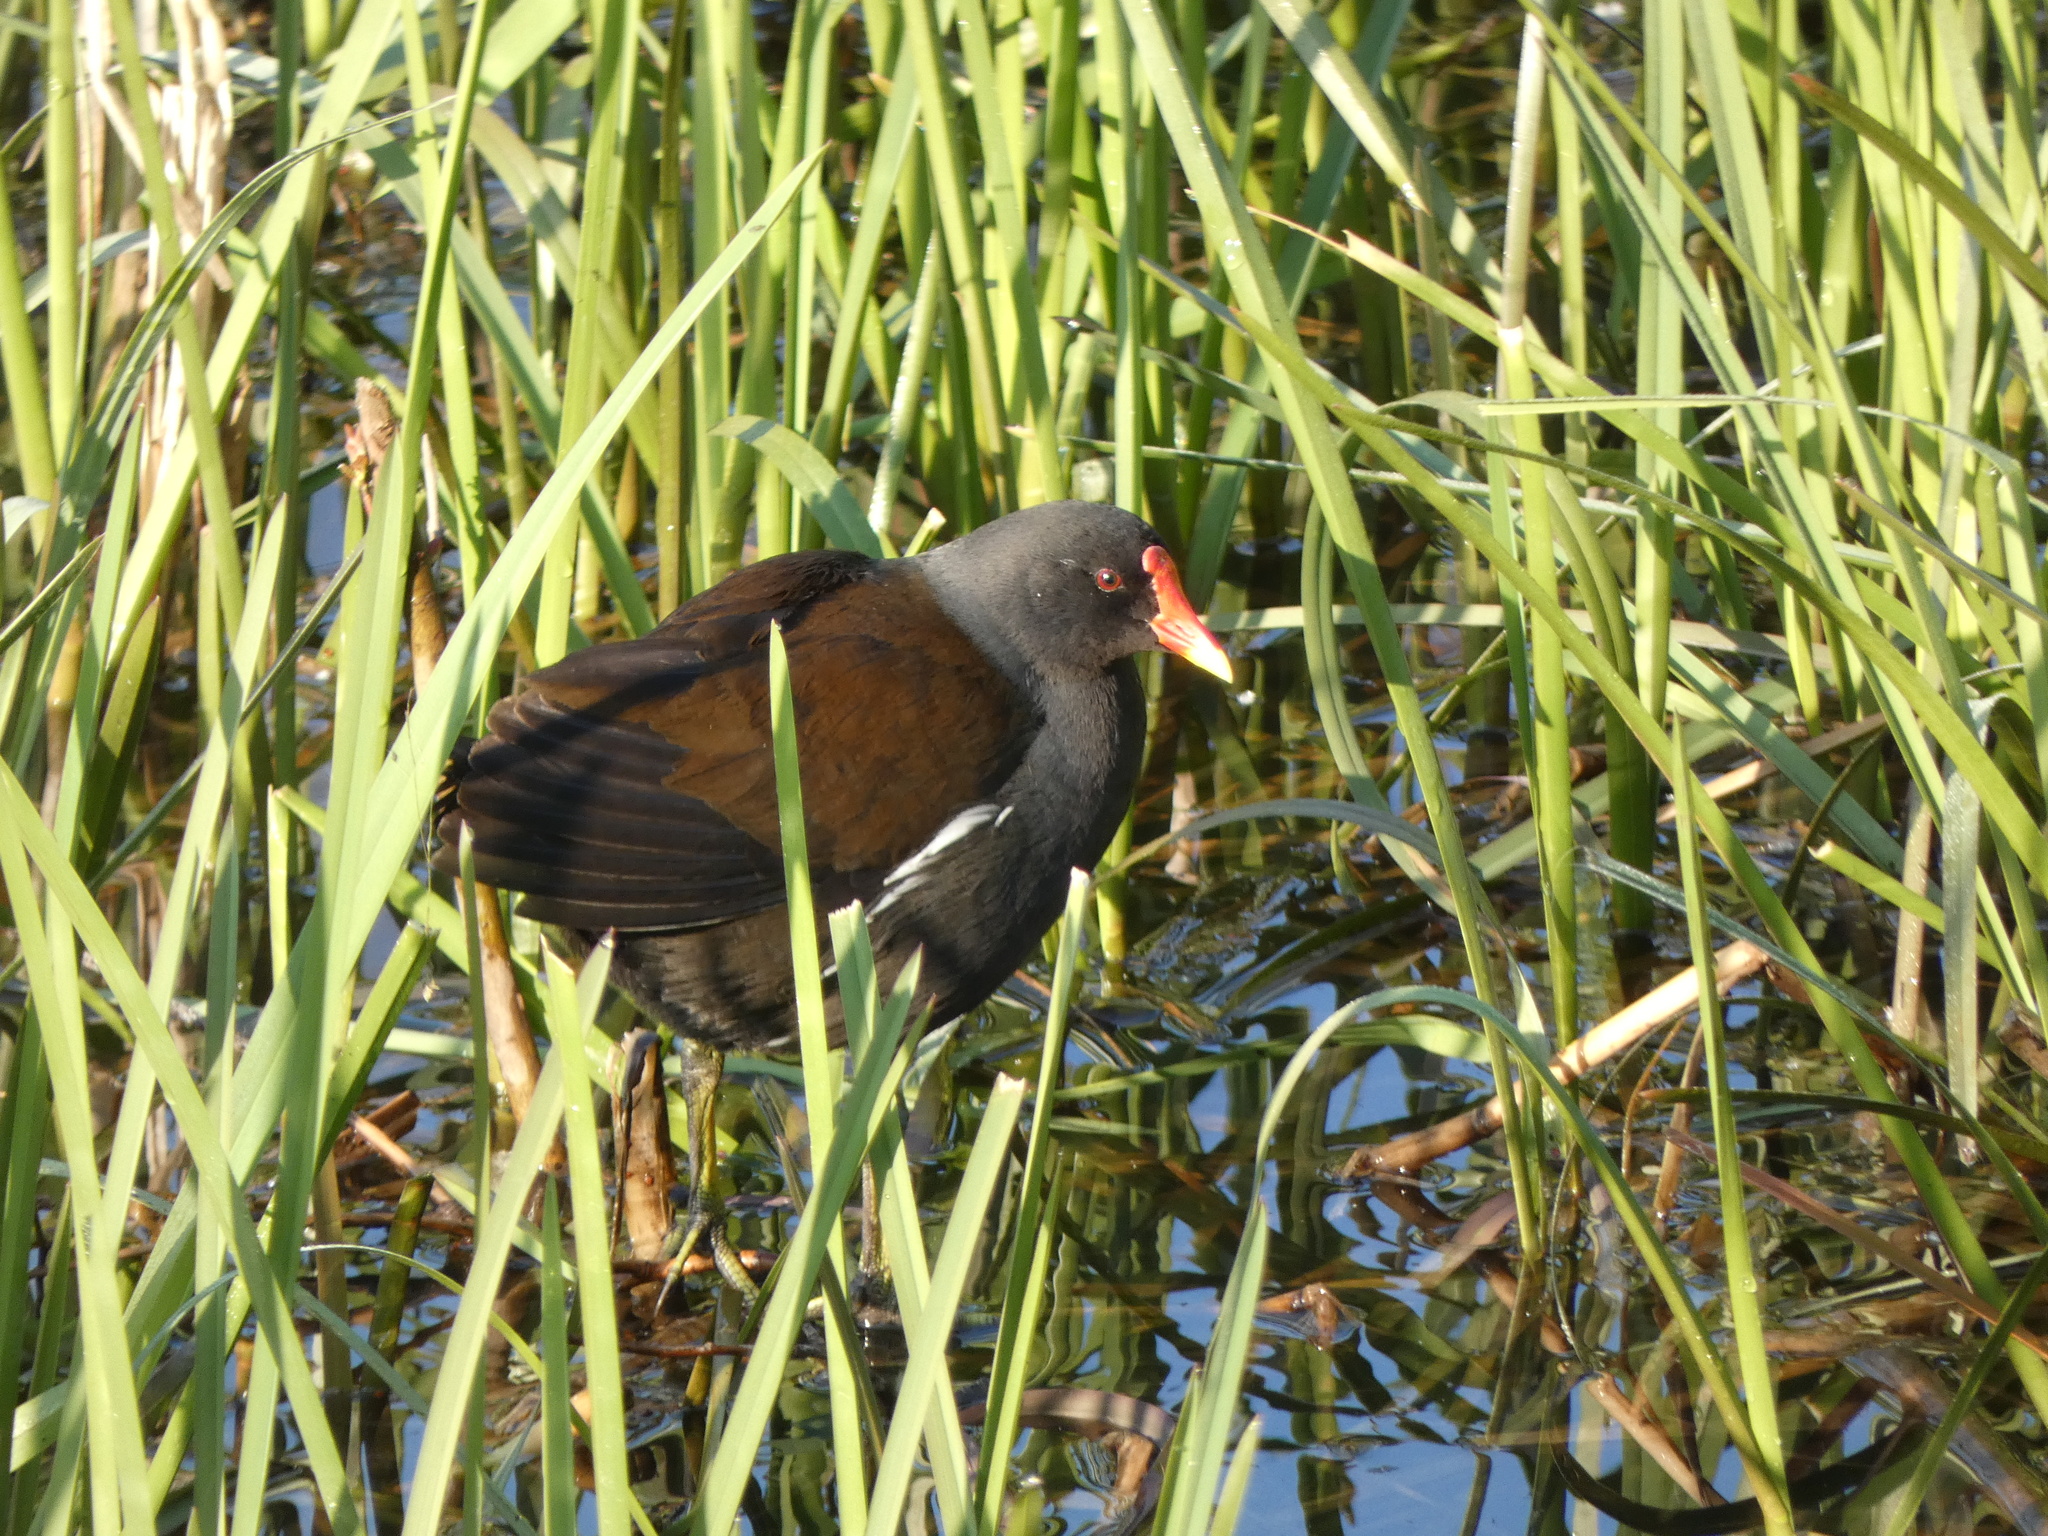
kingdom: Animalia
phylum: Chordata
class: Aves
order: Gruiformes
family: Rallidae
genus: Gallinula
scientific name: Gallinula chloropus
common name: Common moorhen
